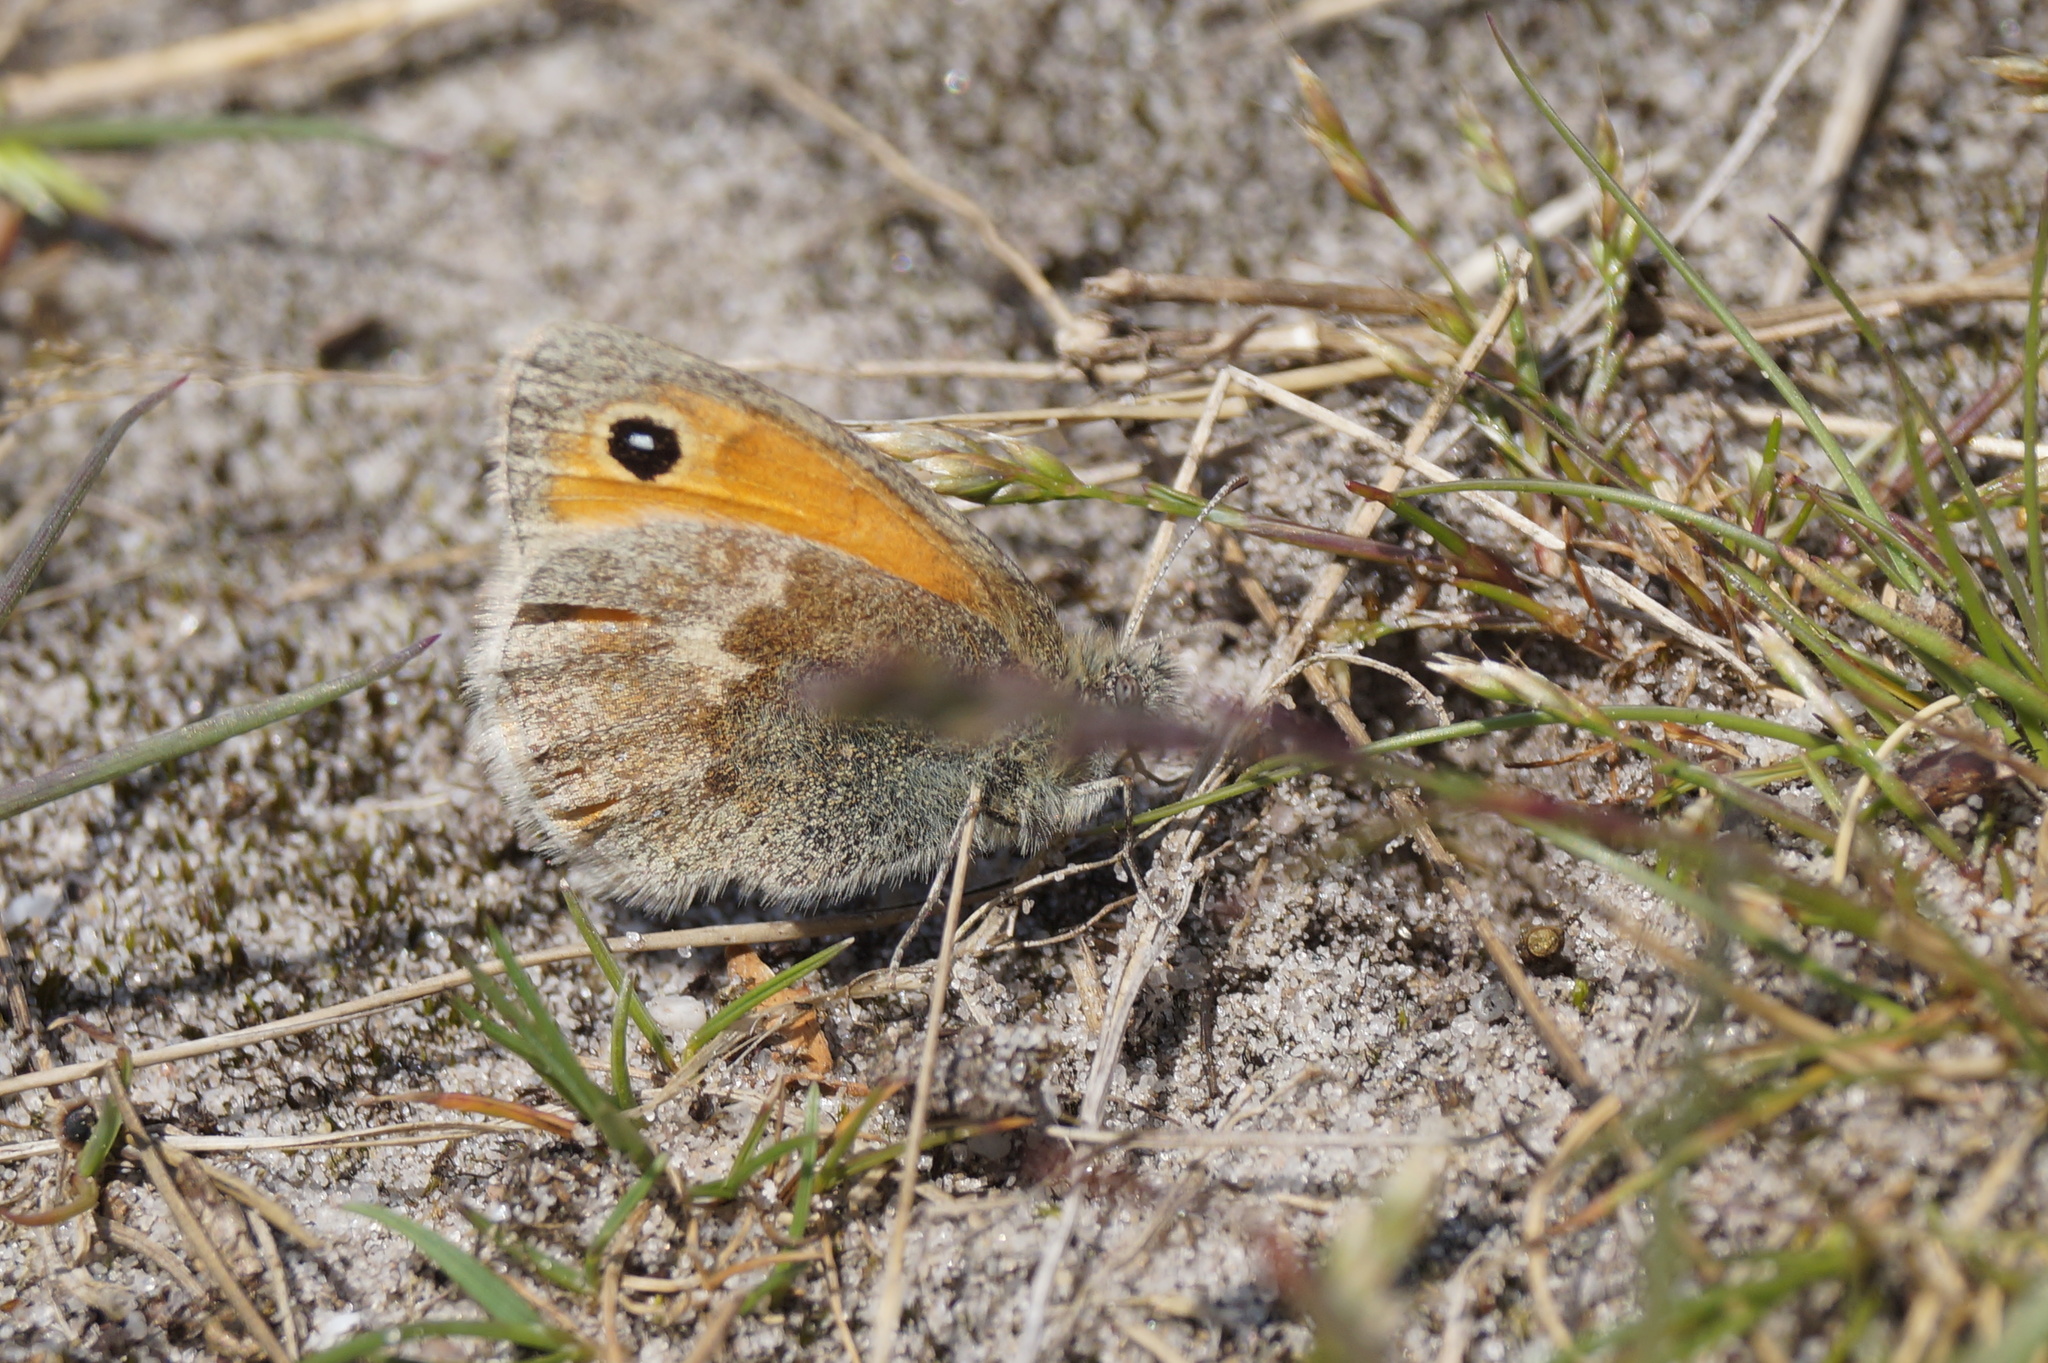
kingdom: Animalia
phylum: Arthropoda
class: Insecta
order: Lepidoptera
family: Nymphalidae
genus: Coenonympha
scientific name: Coenonympha pamphilus
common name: Small heath
